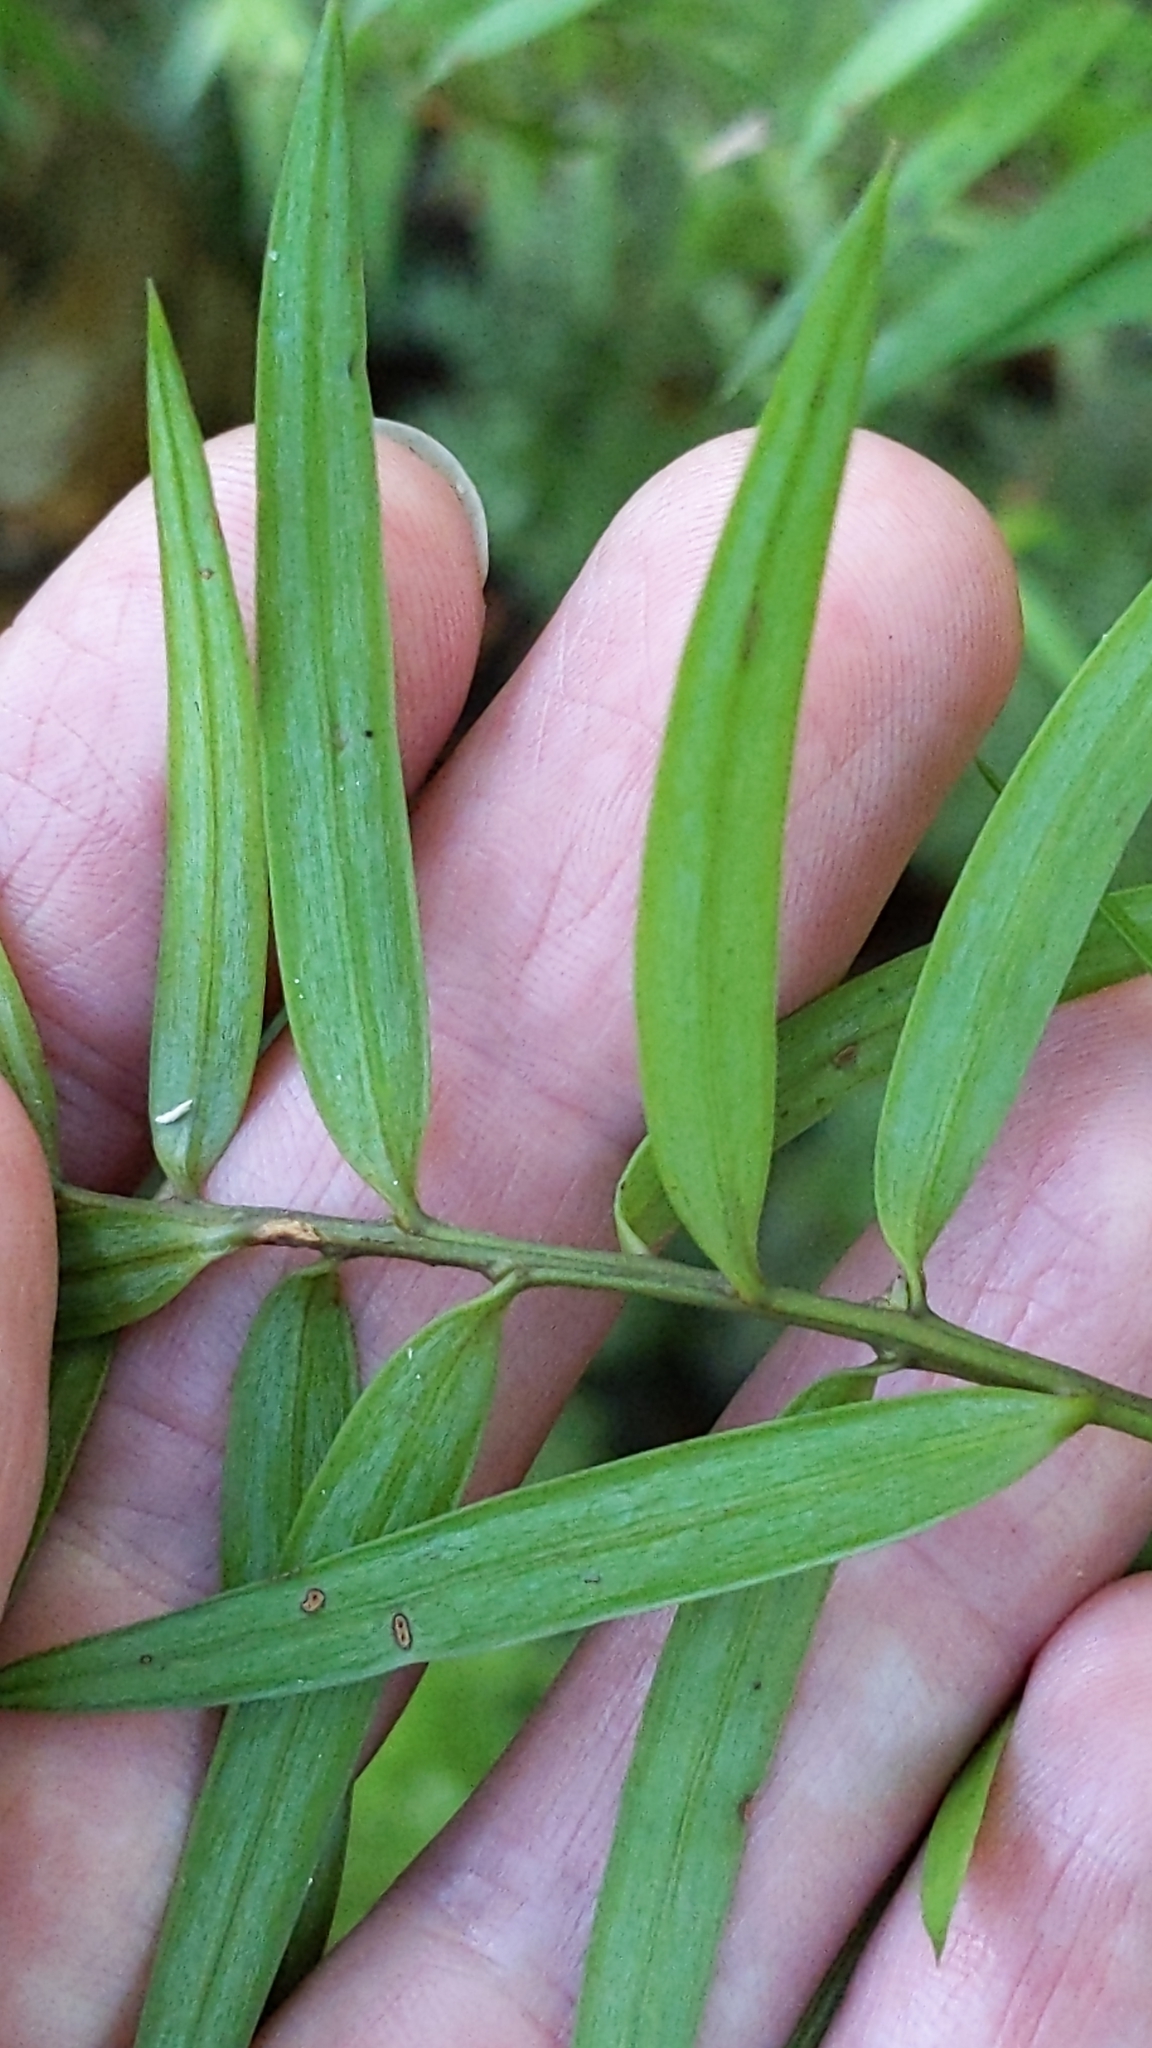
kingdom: Plantae
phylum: Tracheophyta
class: Pinopsida
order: Pinales
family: Podocarpaceae
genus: Podocarpus
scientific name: Podocarpus laetus
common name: Hall's totara
